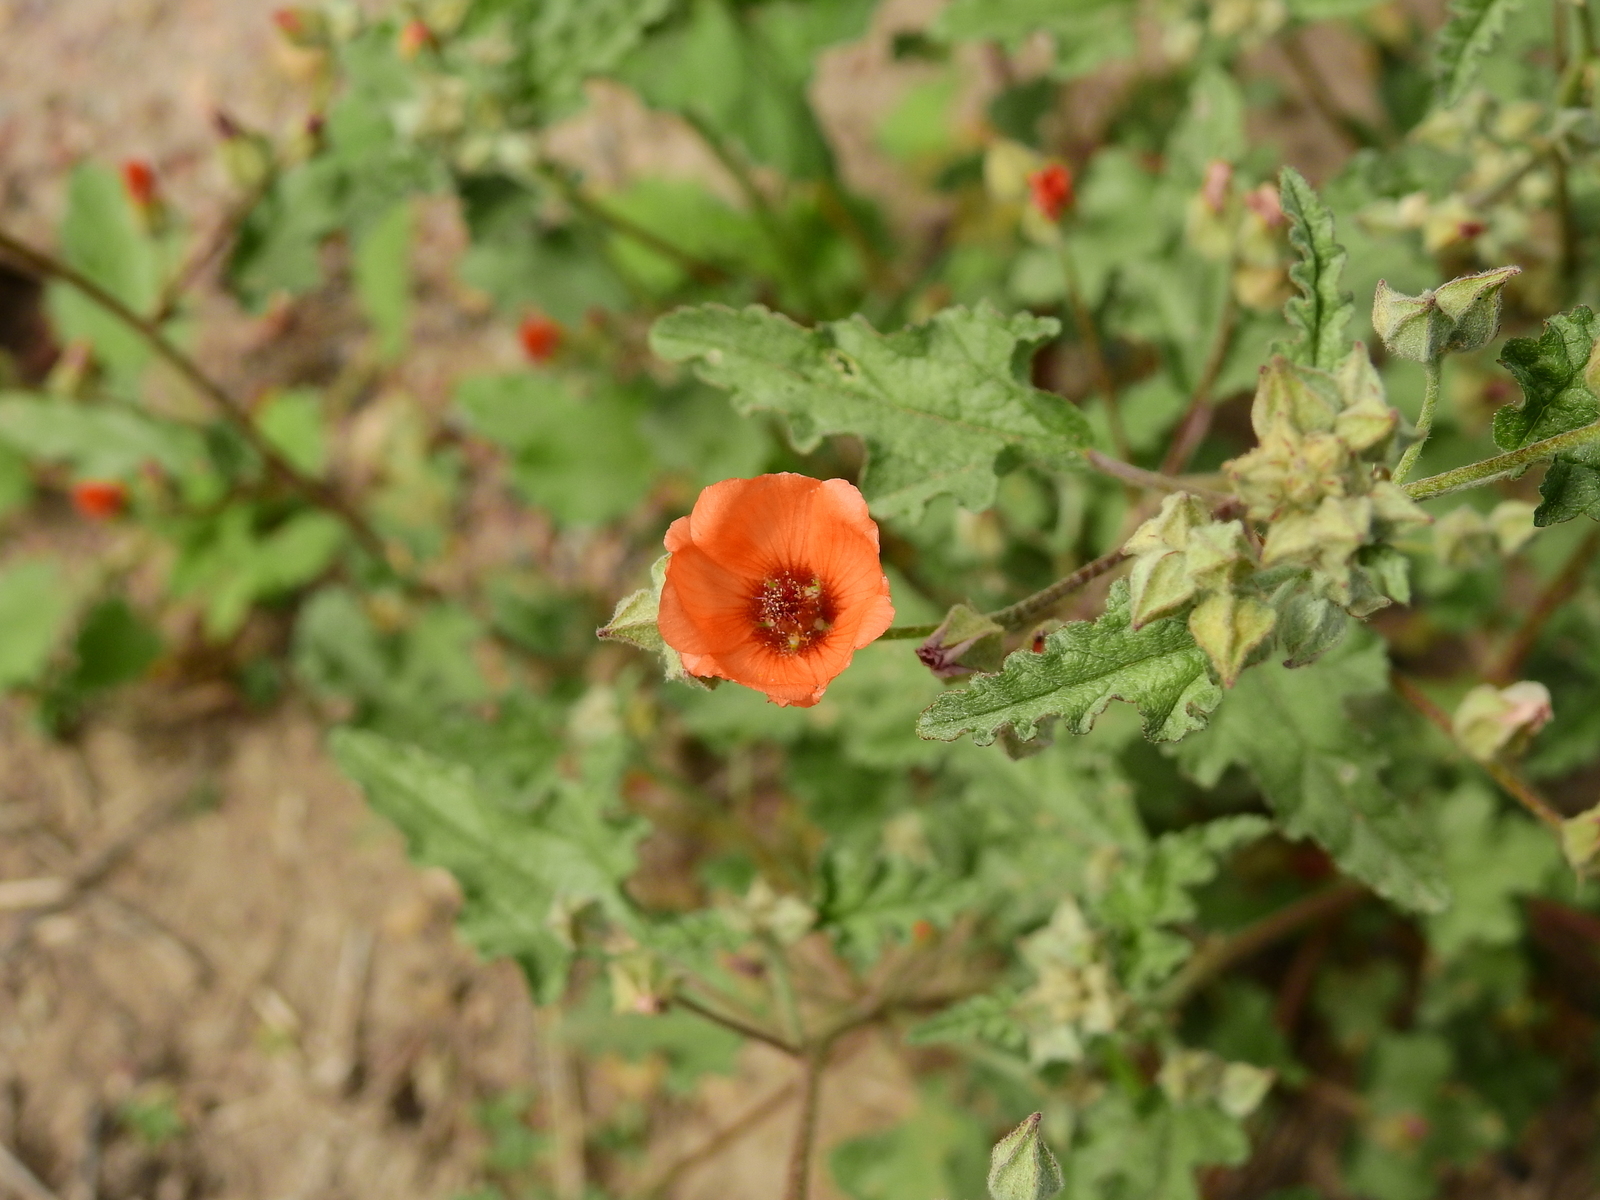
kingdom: Plantae
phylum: Tracheophyta
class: Magnoliopsida
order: Malvales
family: Malvaceae
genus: Sphaeralcea
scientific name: Sphaeralcea miniata
